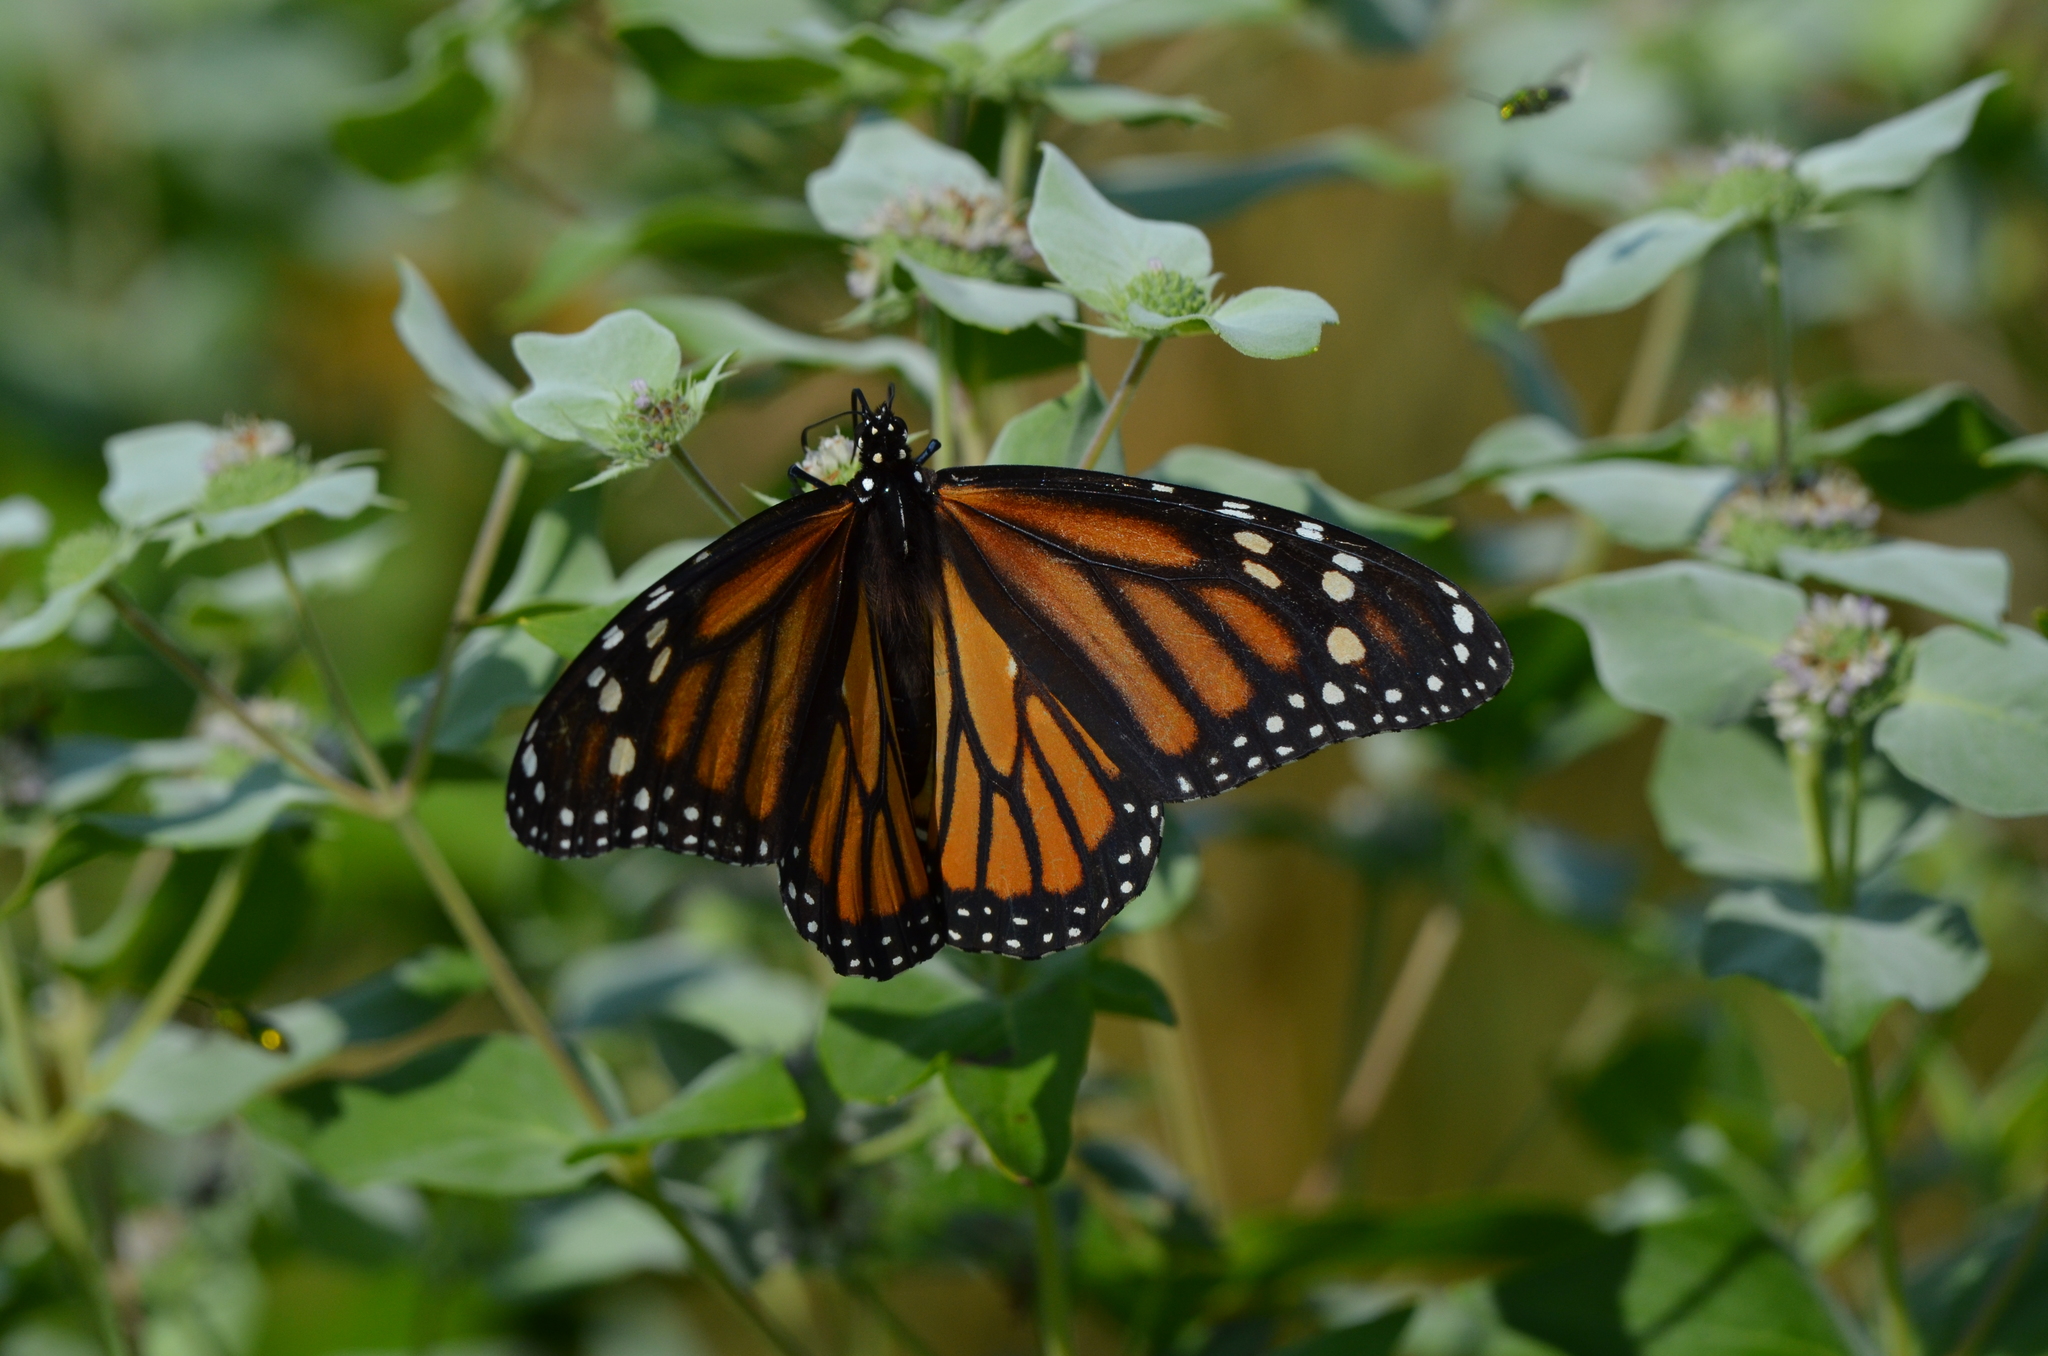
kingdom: Animalia
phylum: Arthropoda
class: Insecta
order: Lepidoptera
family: Nymphalidae
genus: Danaus
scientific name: Danaus plexippus
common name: Monarch
